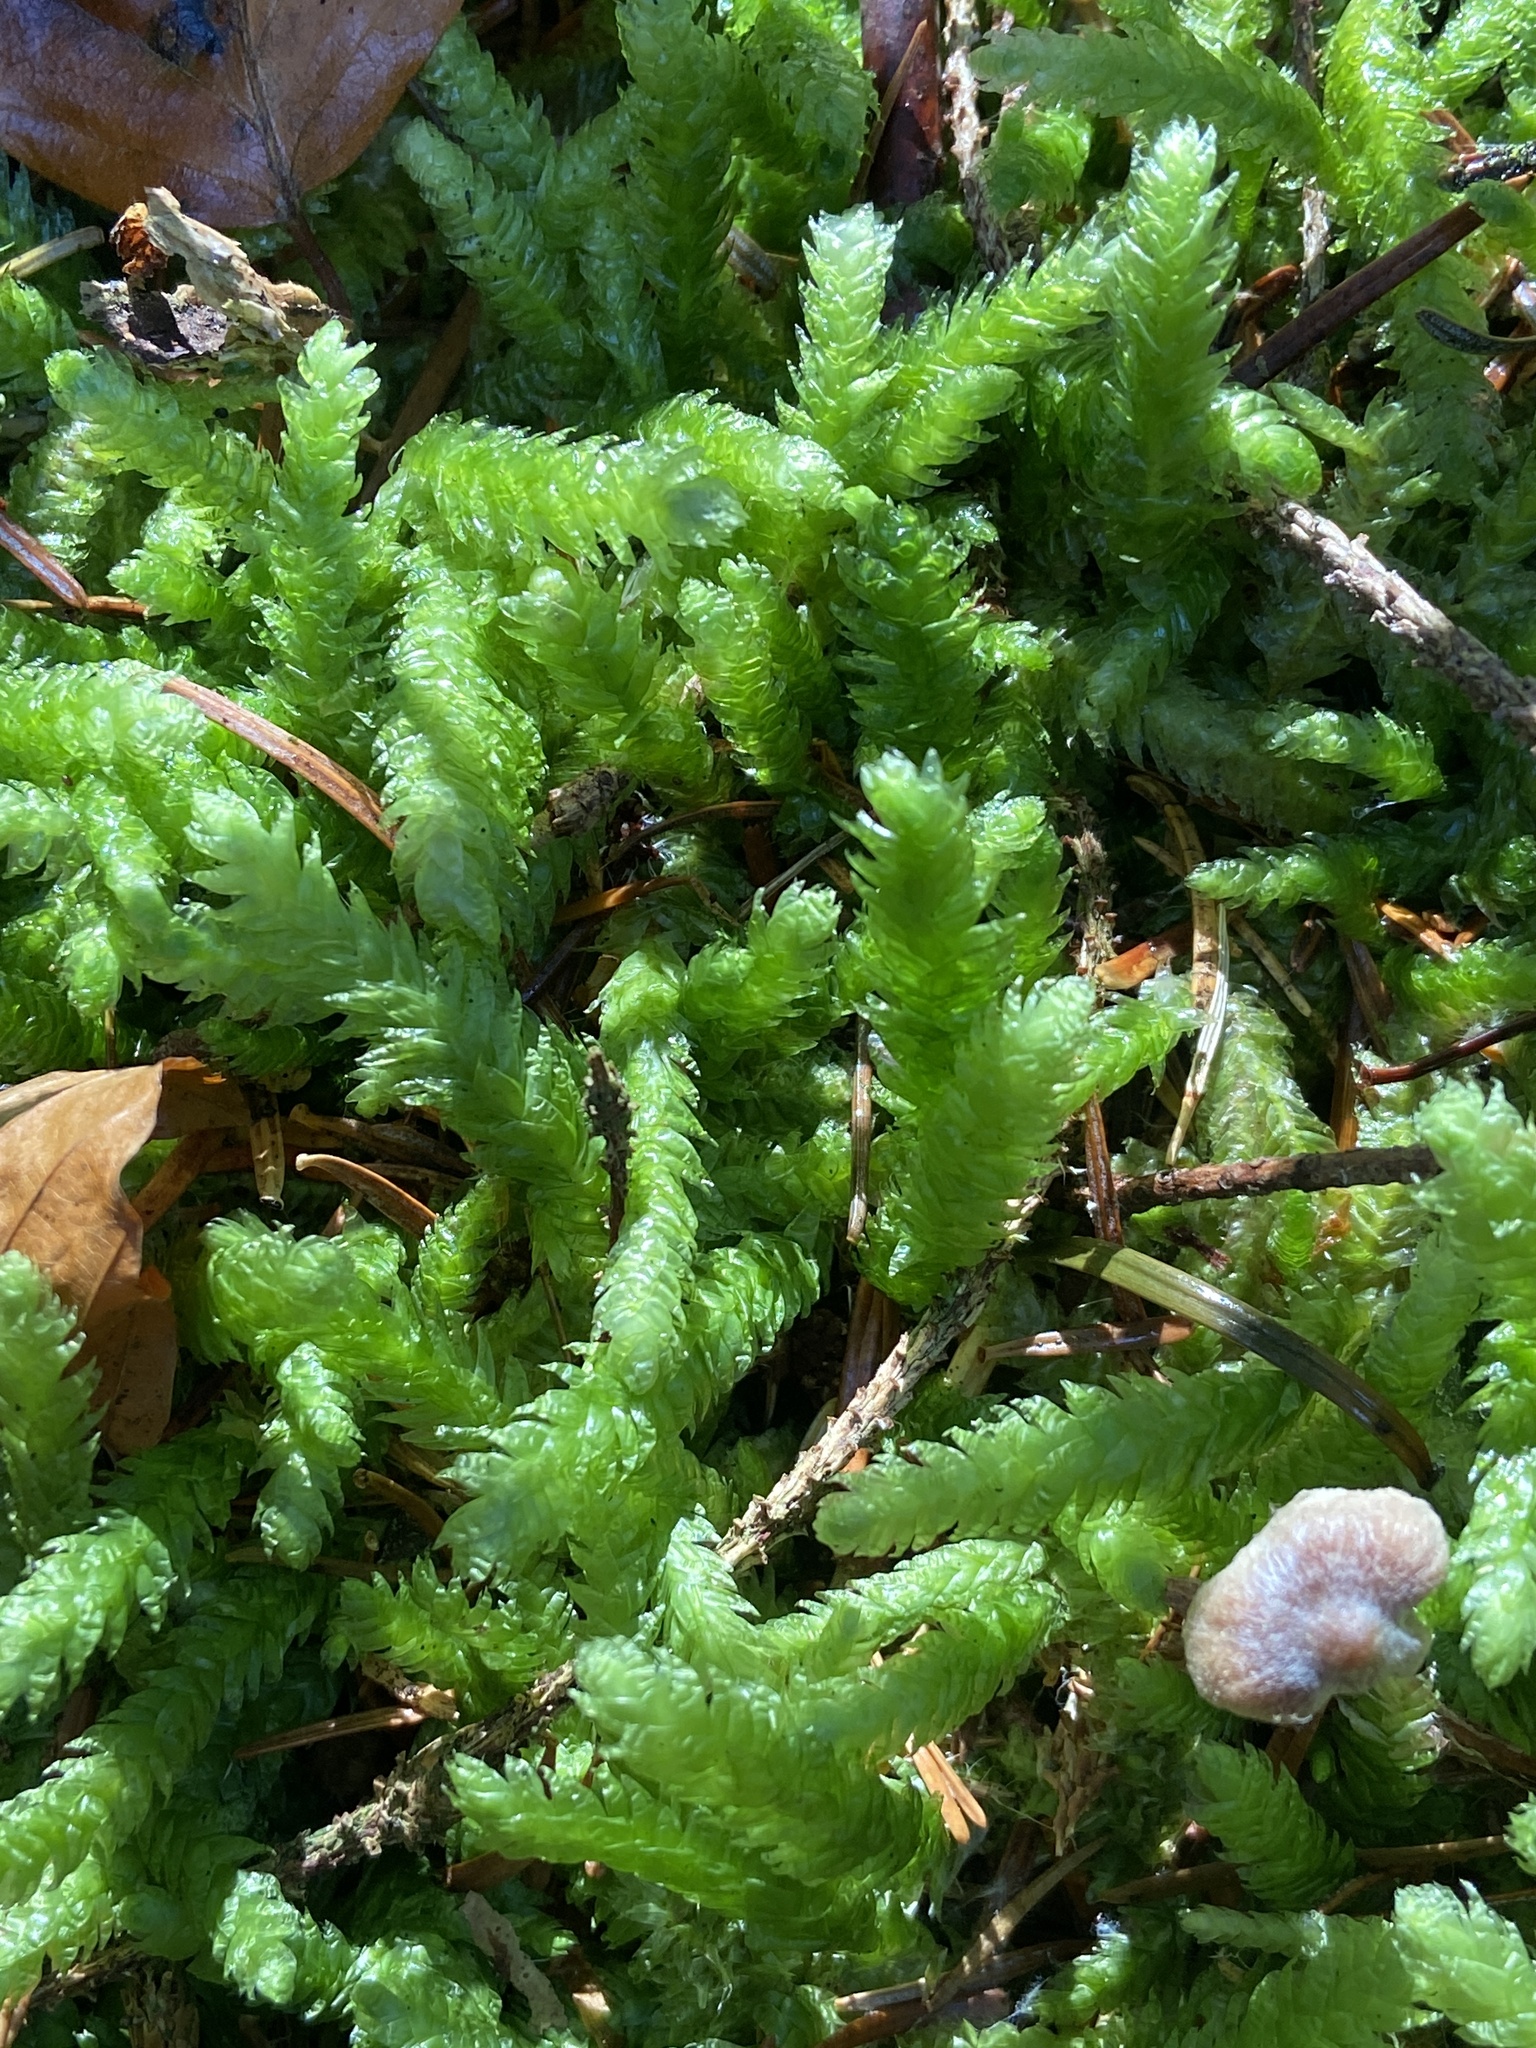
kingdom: Plantae
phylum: Bryophyta
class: Bryopsida
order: Hypnales
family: Plagiotheciaceae
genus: Plagiothecium
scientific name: Plagiothecium undulatum
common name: Waved silk-moss
